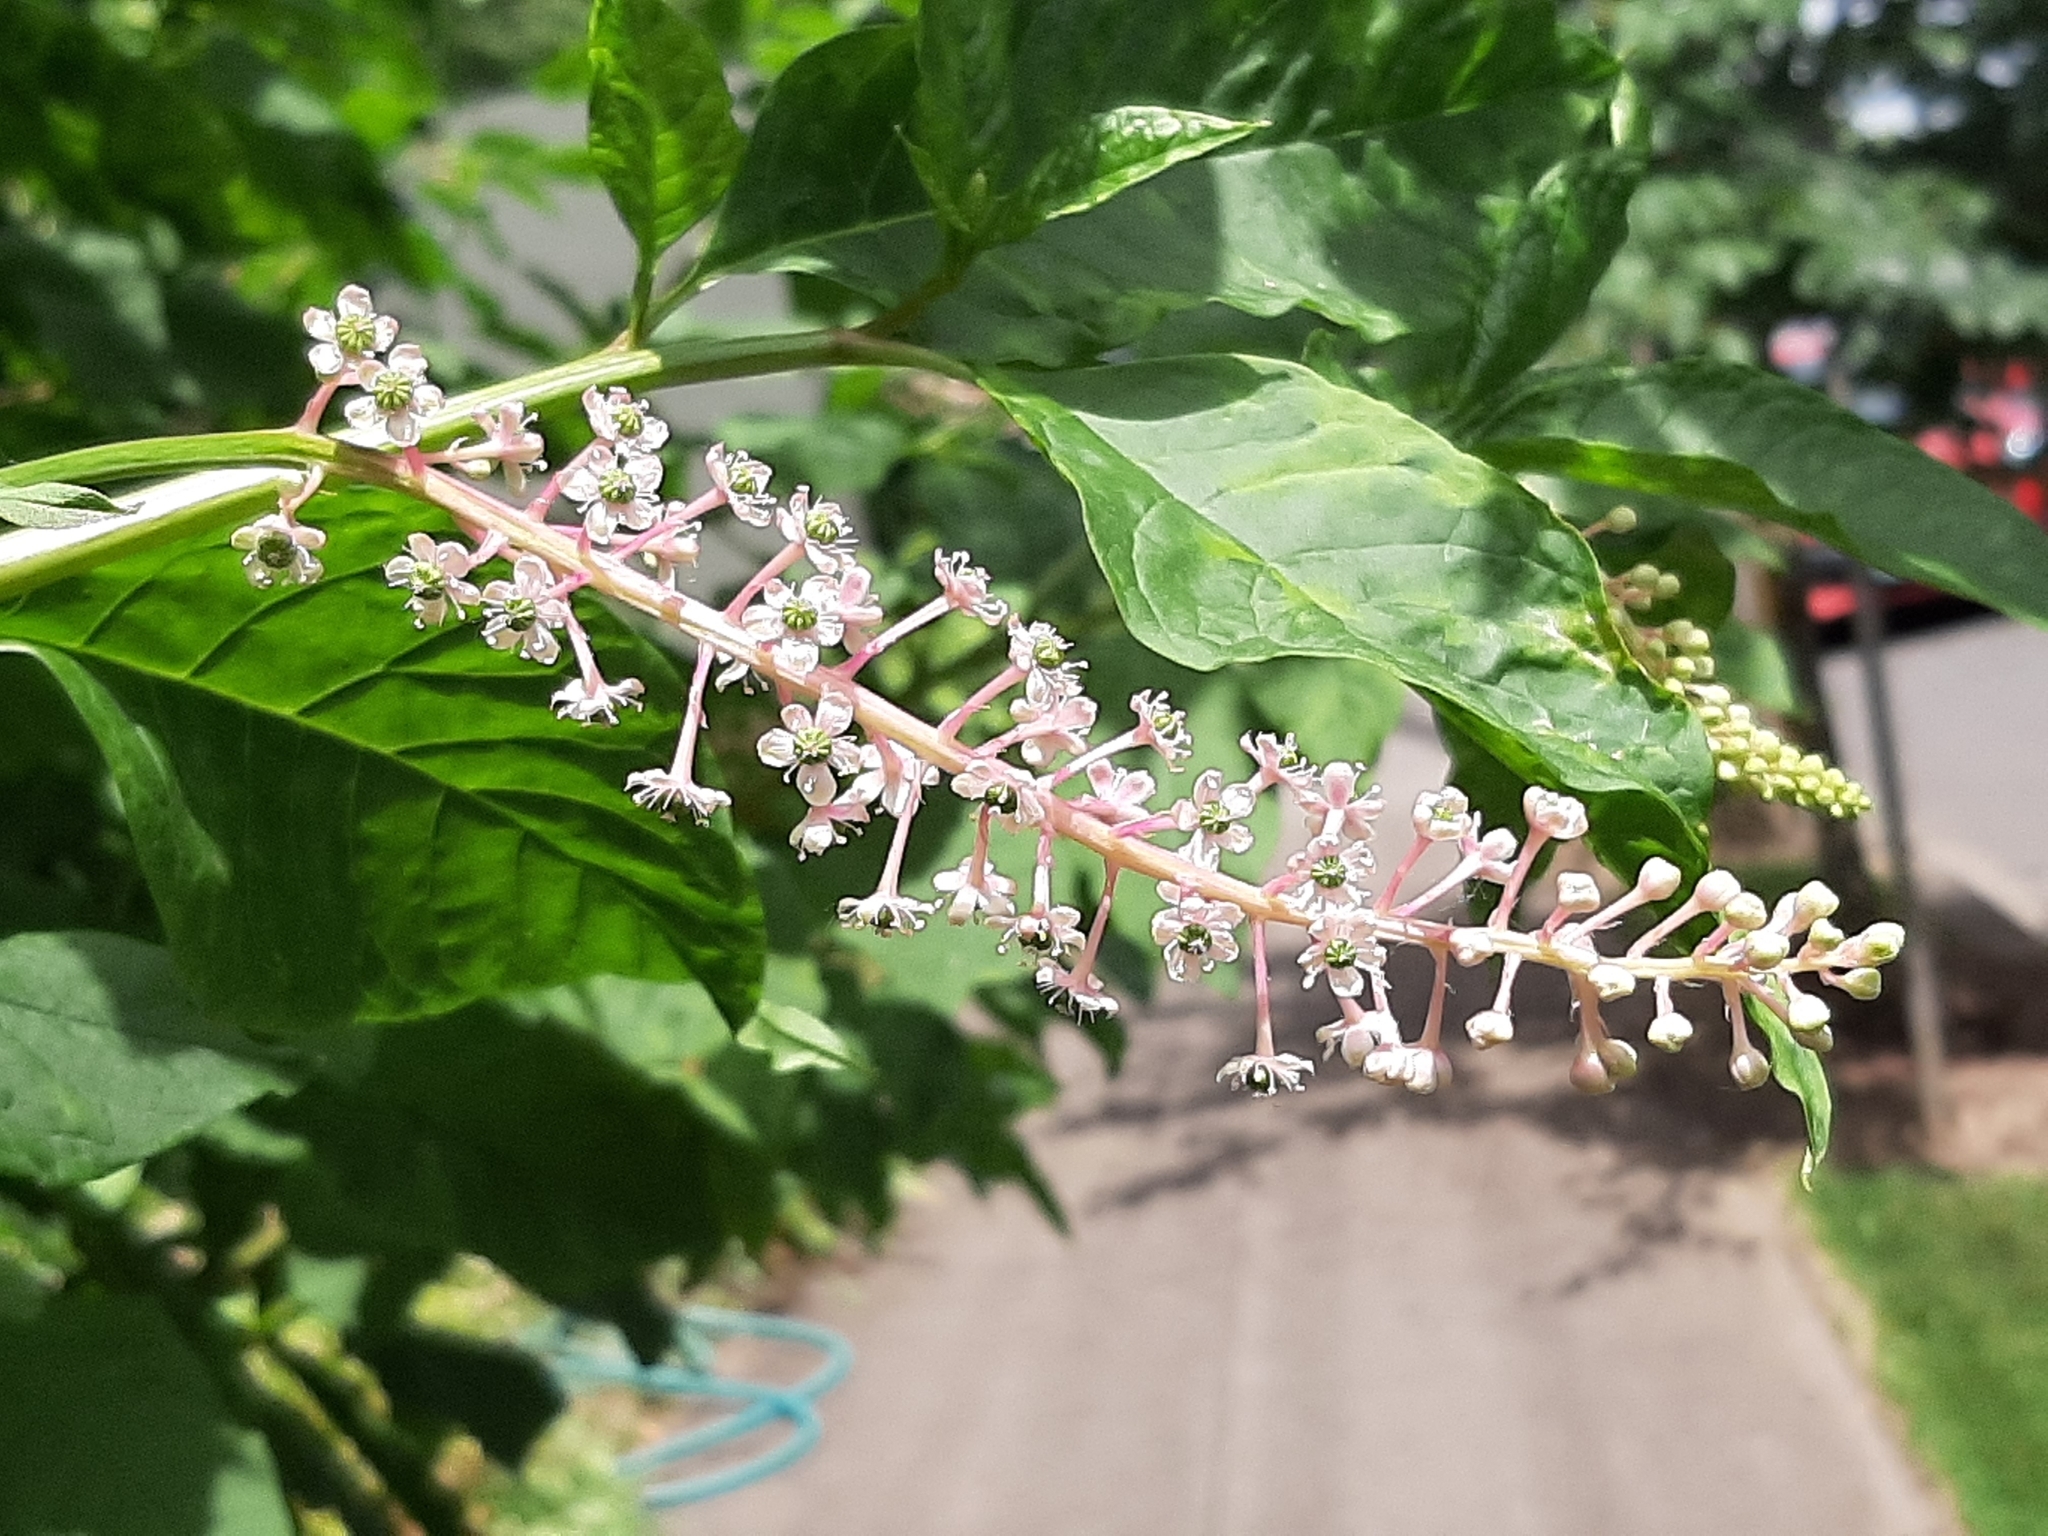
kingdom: Plantae
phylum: Tracheophyta
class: Magnoliopsida
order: Caryophyllales
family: Phytolaccaceae
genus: Phytolacca
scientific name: Phytolacca americana
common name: American pokeweed
